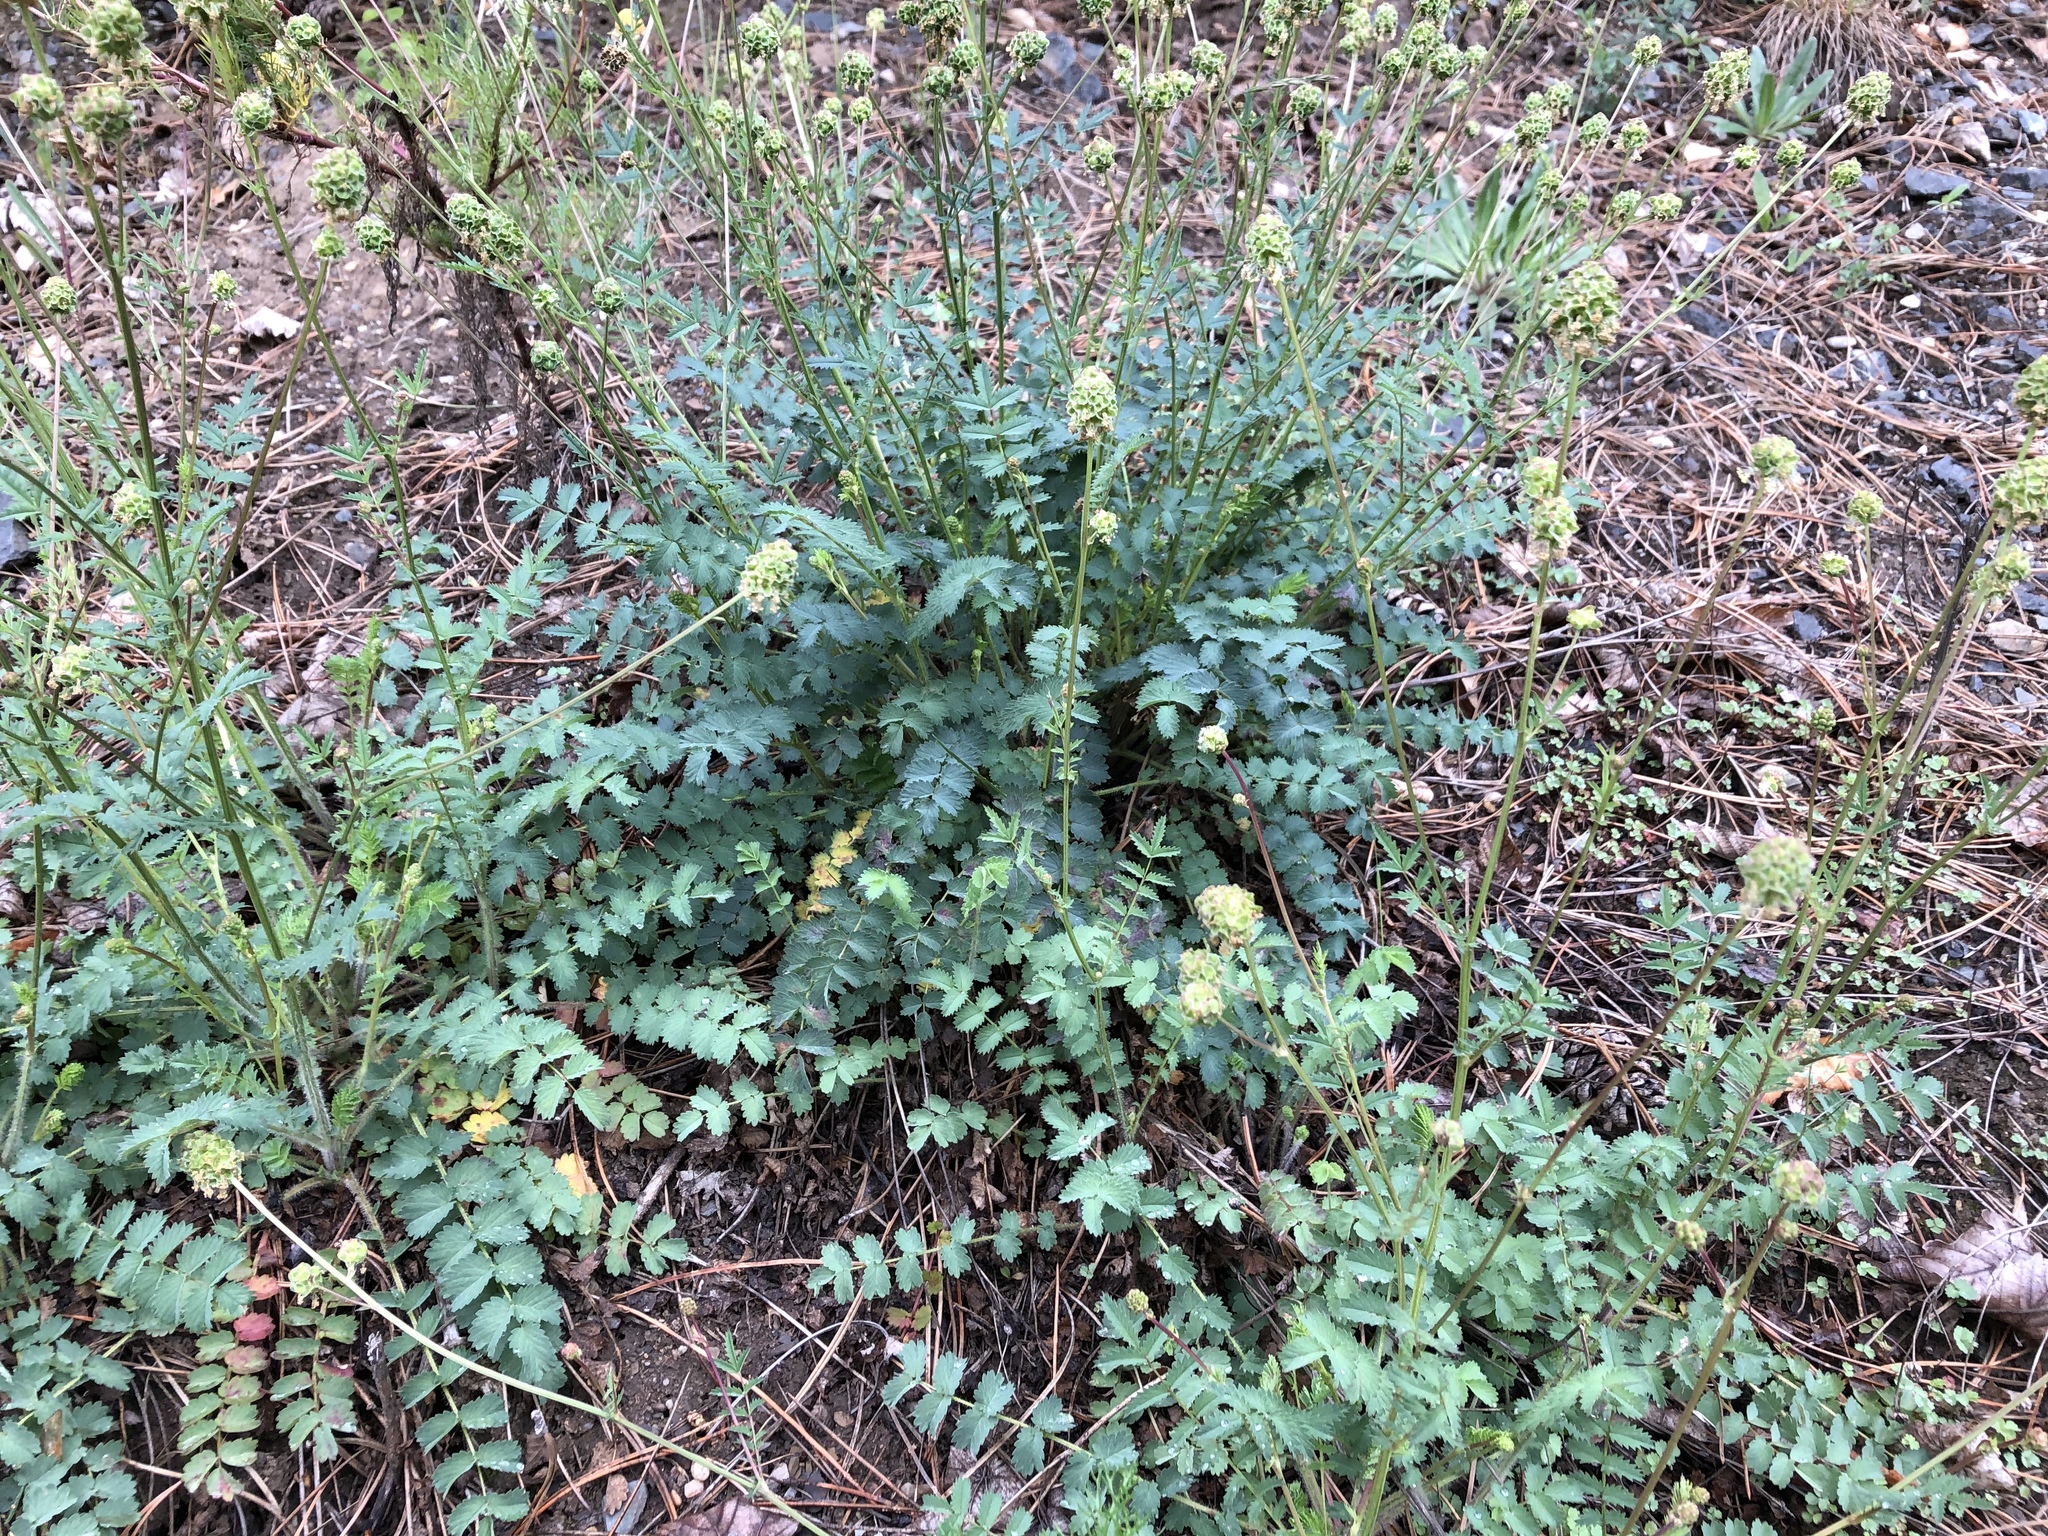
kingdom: Plantae
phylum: Tracheophyta
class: Magnoliopsida
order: Rosales
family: Rosaceae
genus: Poterium
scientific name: Poterium sanguisorba
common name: Salad burnet
